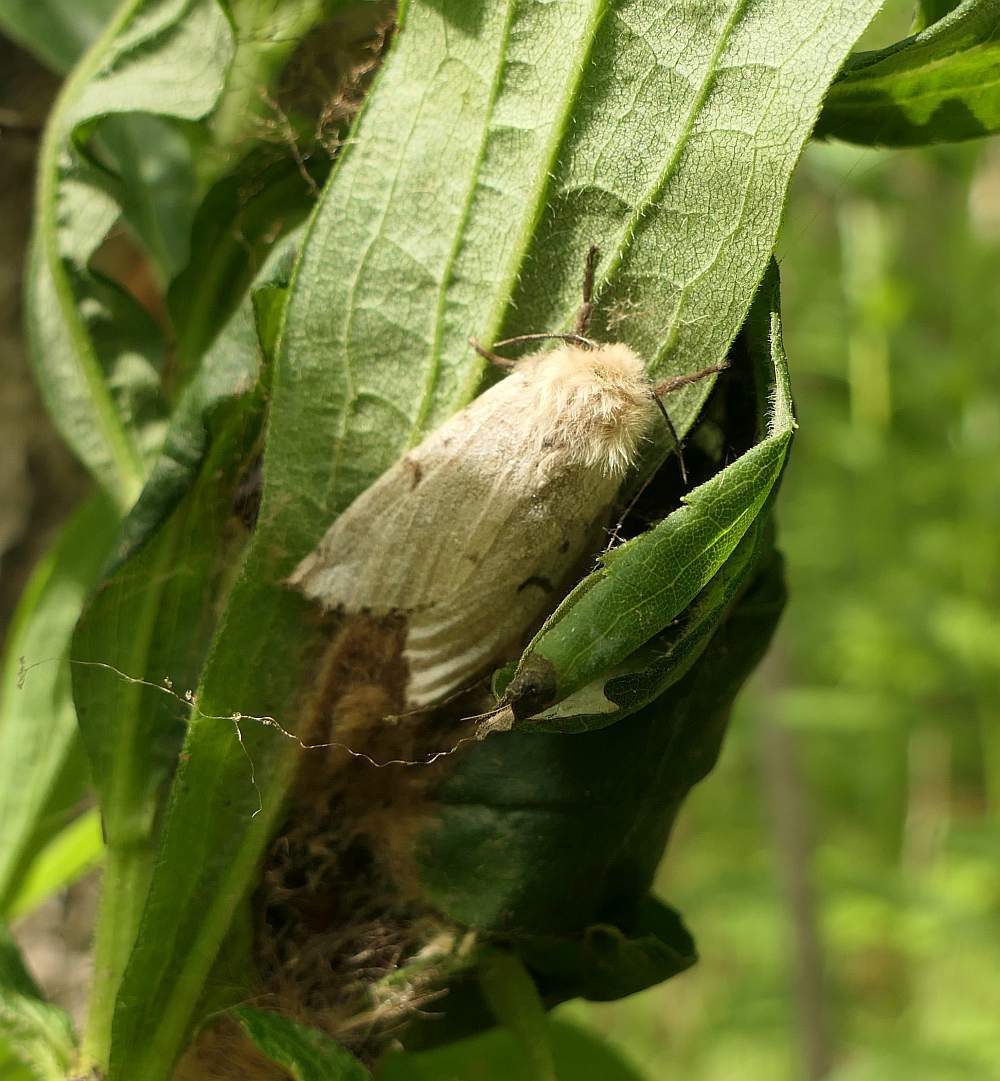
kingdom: Animalia
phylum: Arthropoda
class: Insecta
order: Lepidoptera
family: Erebidae
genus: Lymantria
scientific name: Lymantria dispar
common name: Gypsy moth
